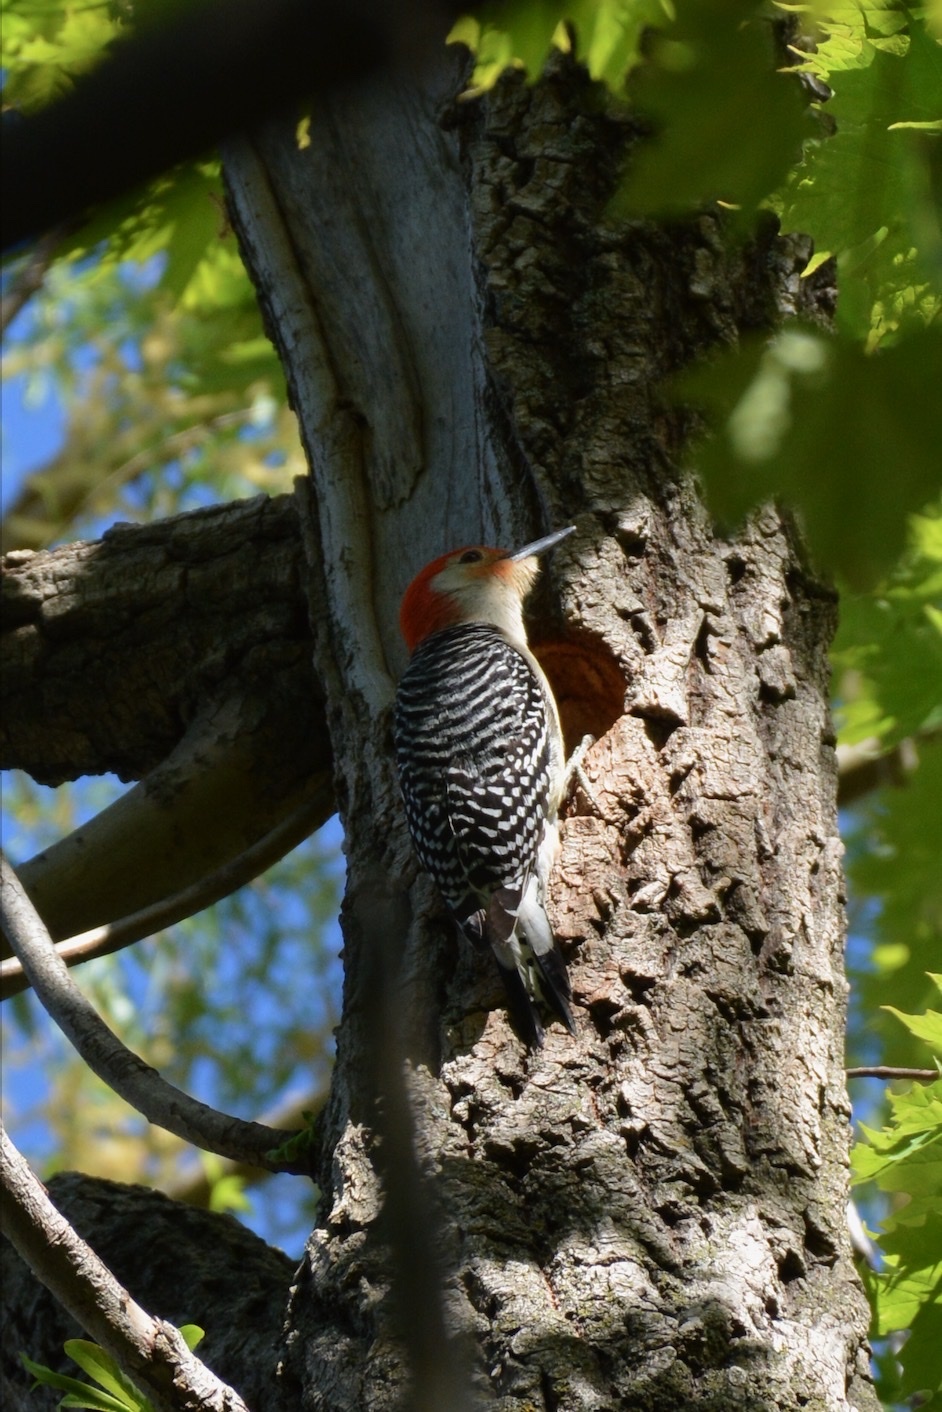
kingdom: Animalia
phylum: Chordata
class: Aves
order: Piciformes
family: Picidae
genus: Melanerpes
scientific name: Melanerpes carolinus
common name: Red-bellied woodpecker
